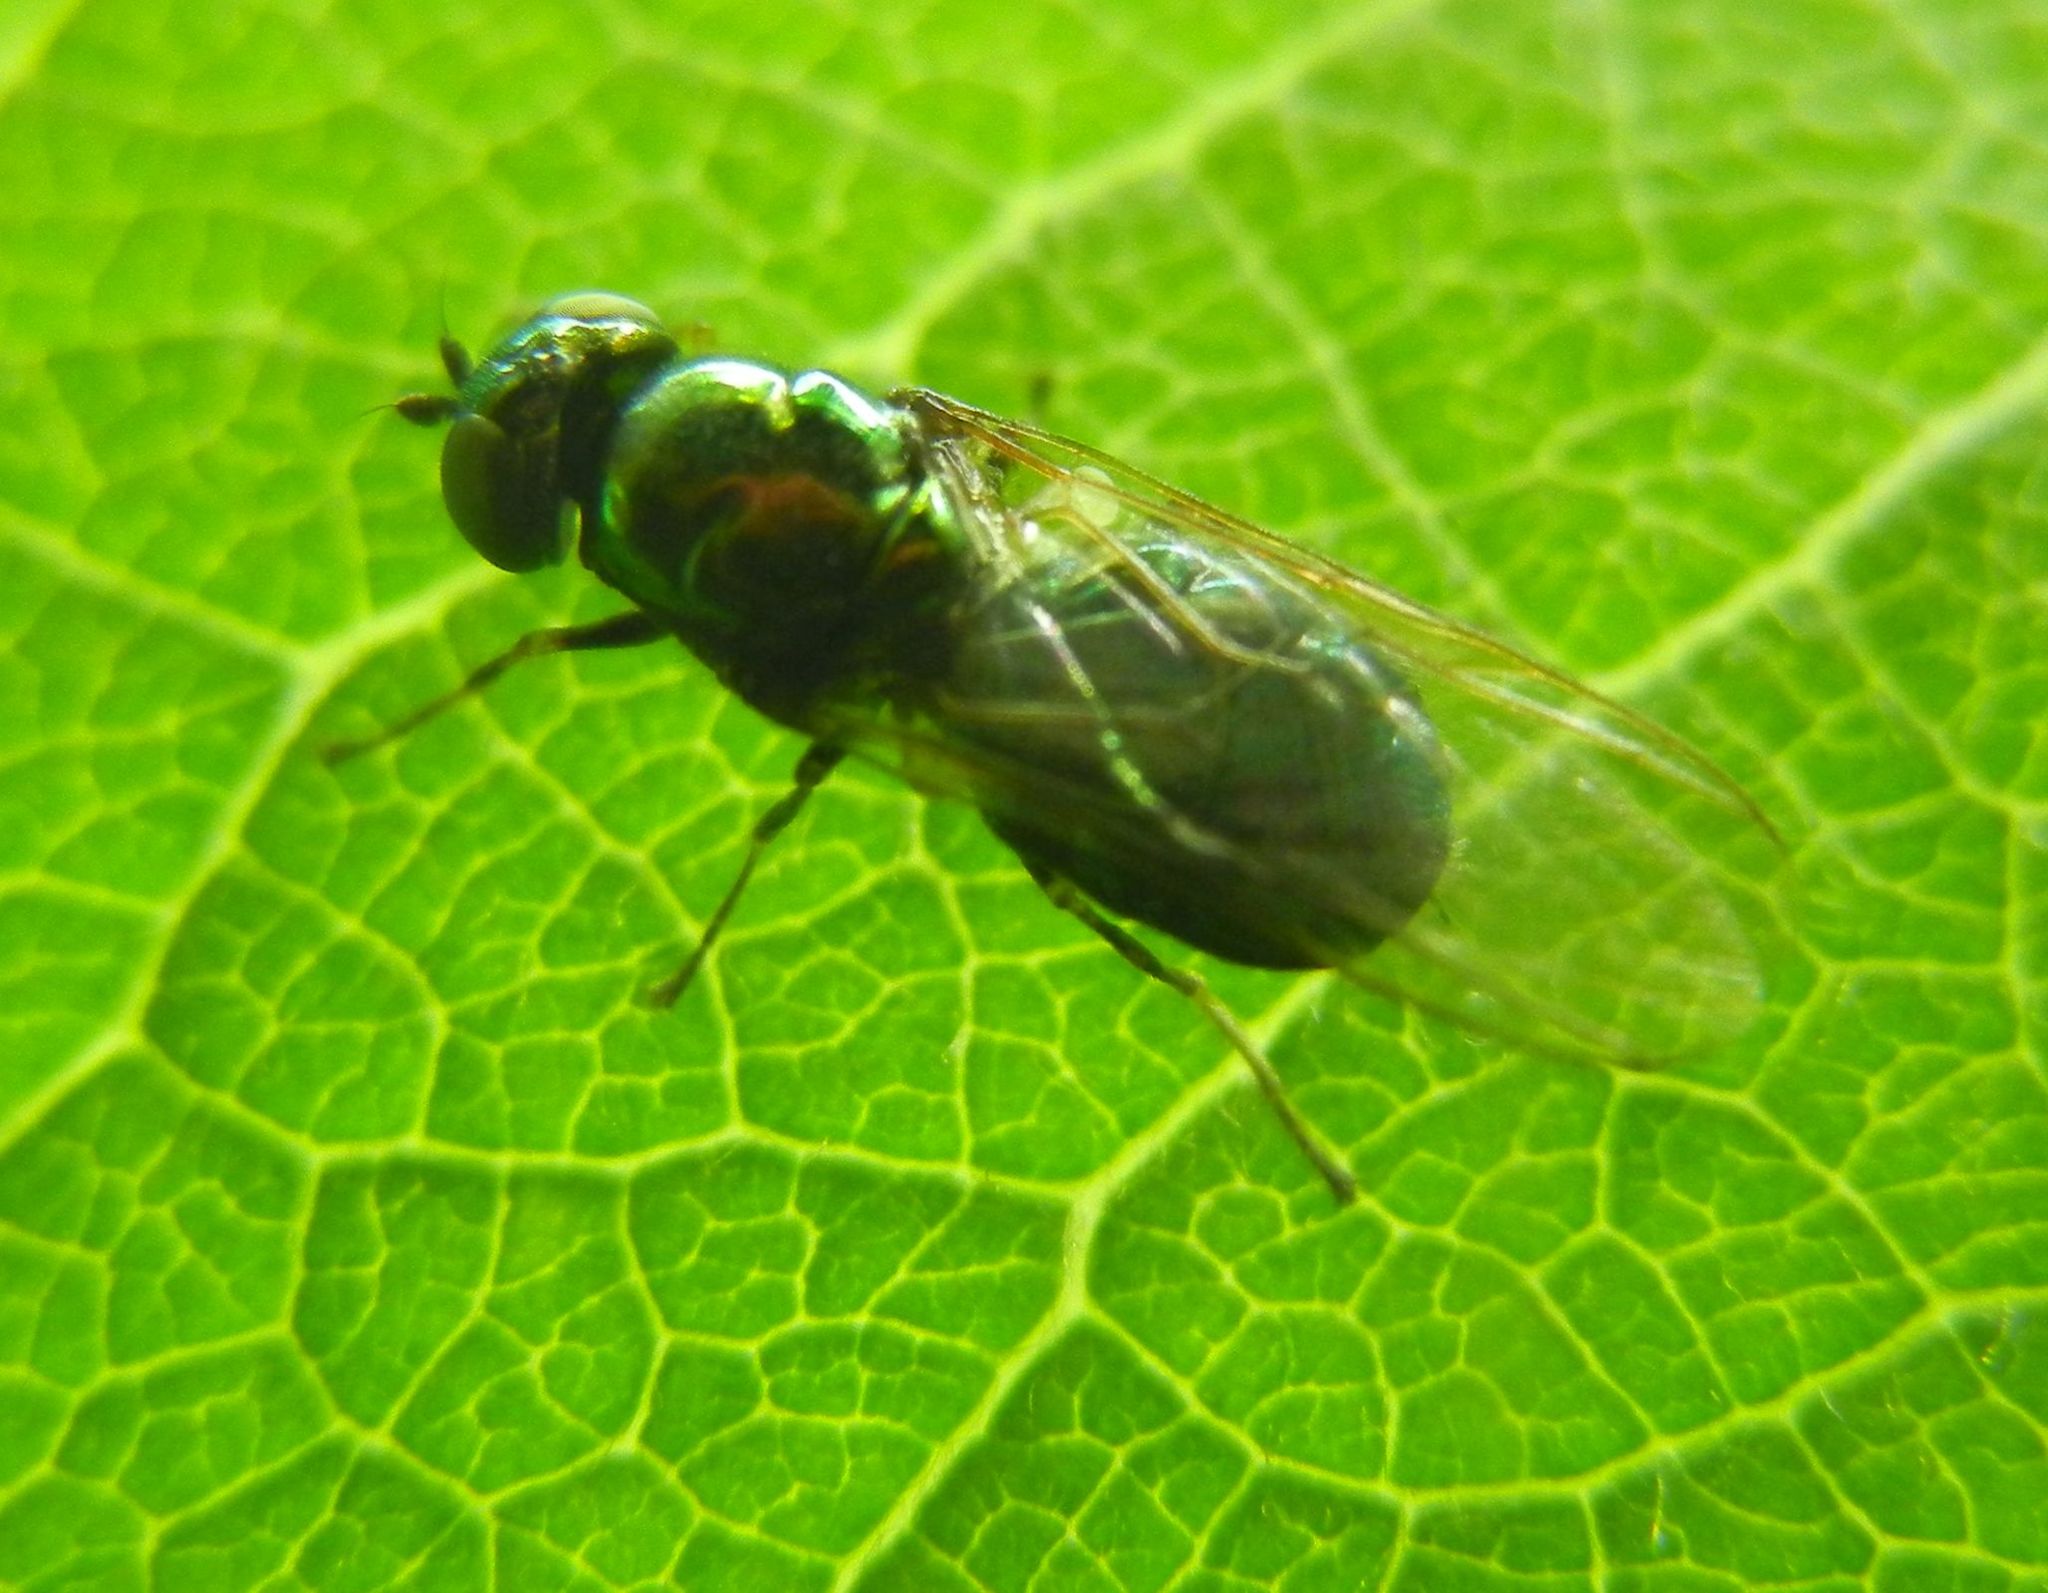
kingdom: Animalia
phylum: Arthropoda
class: Insecta
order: Diptera
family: Stratiomyidae
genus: Microchrysa
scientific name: Microchrysa polita
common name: Black-horned gem
